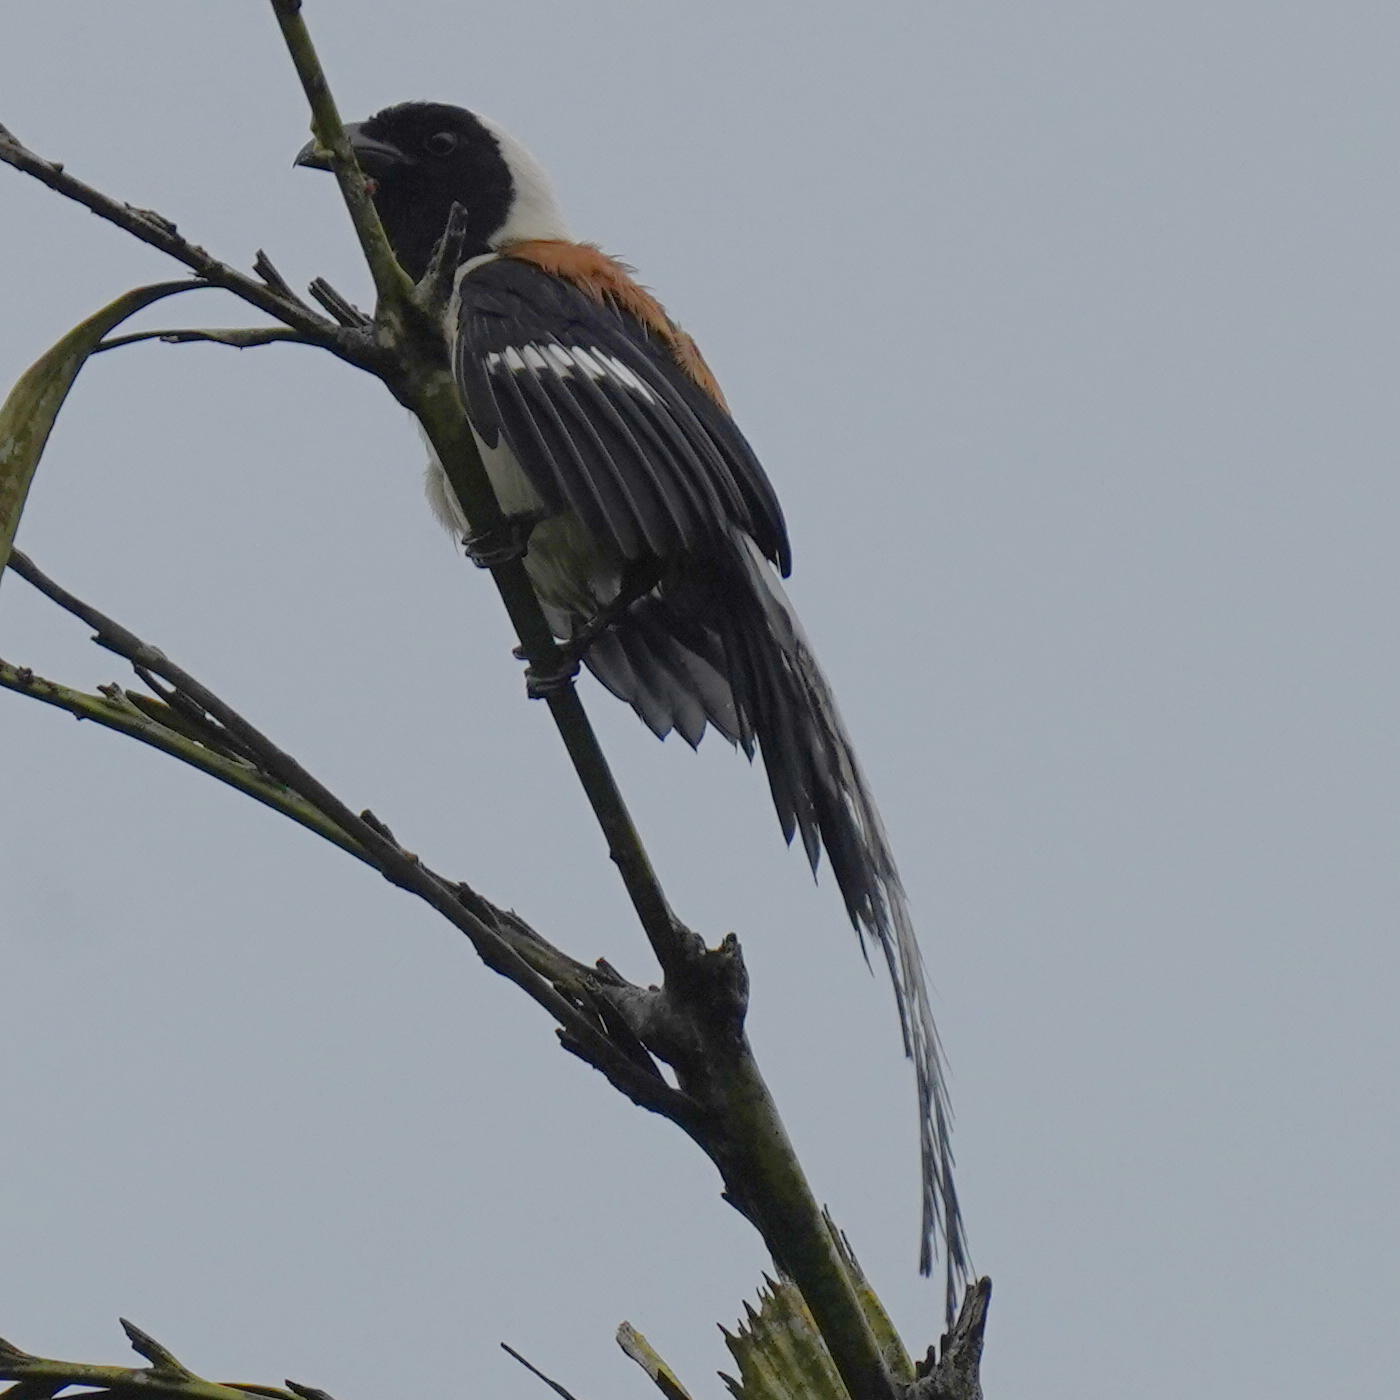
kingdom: Animalia
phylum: Chordata
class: Aves
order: Passeriformes
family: Corvidae
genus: Dendrocitta
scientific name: Dendrocitta leucogastra
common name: White-bellied treepie
